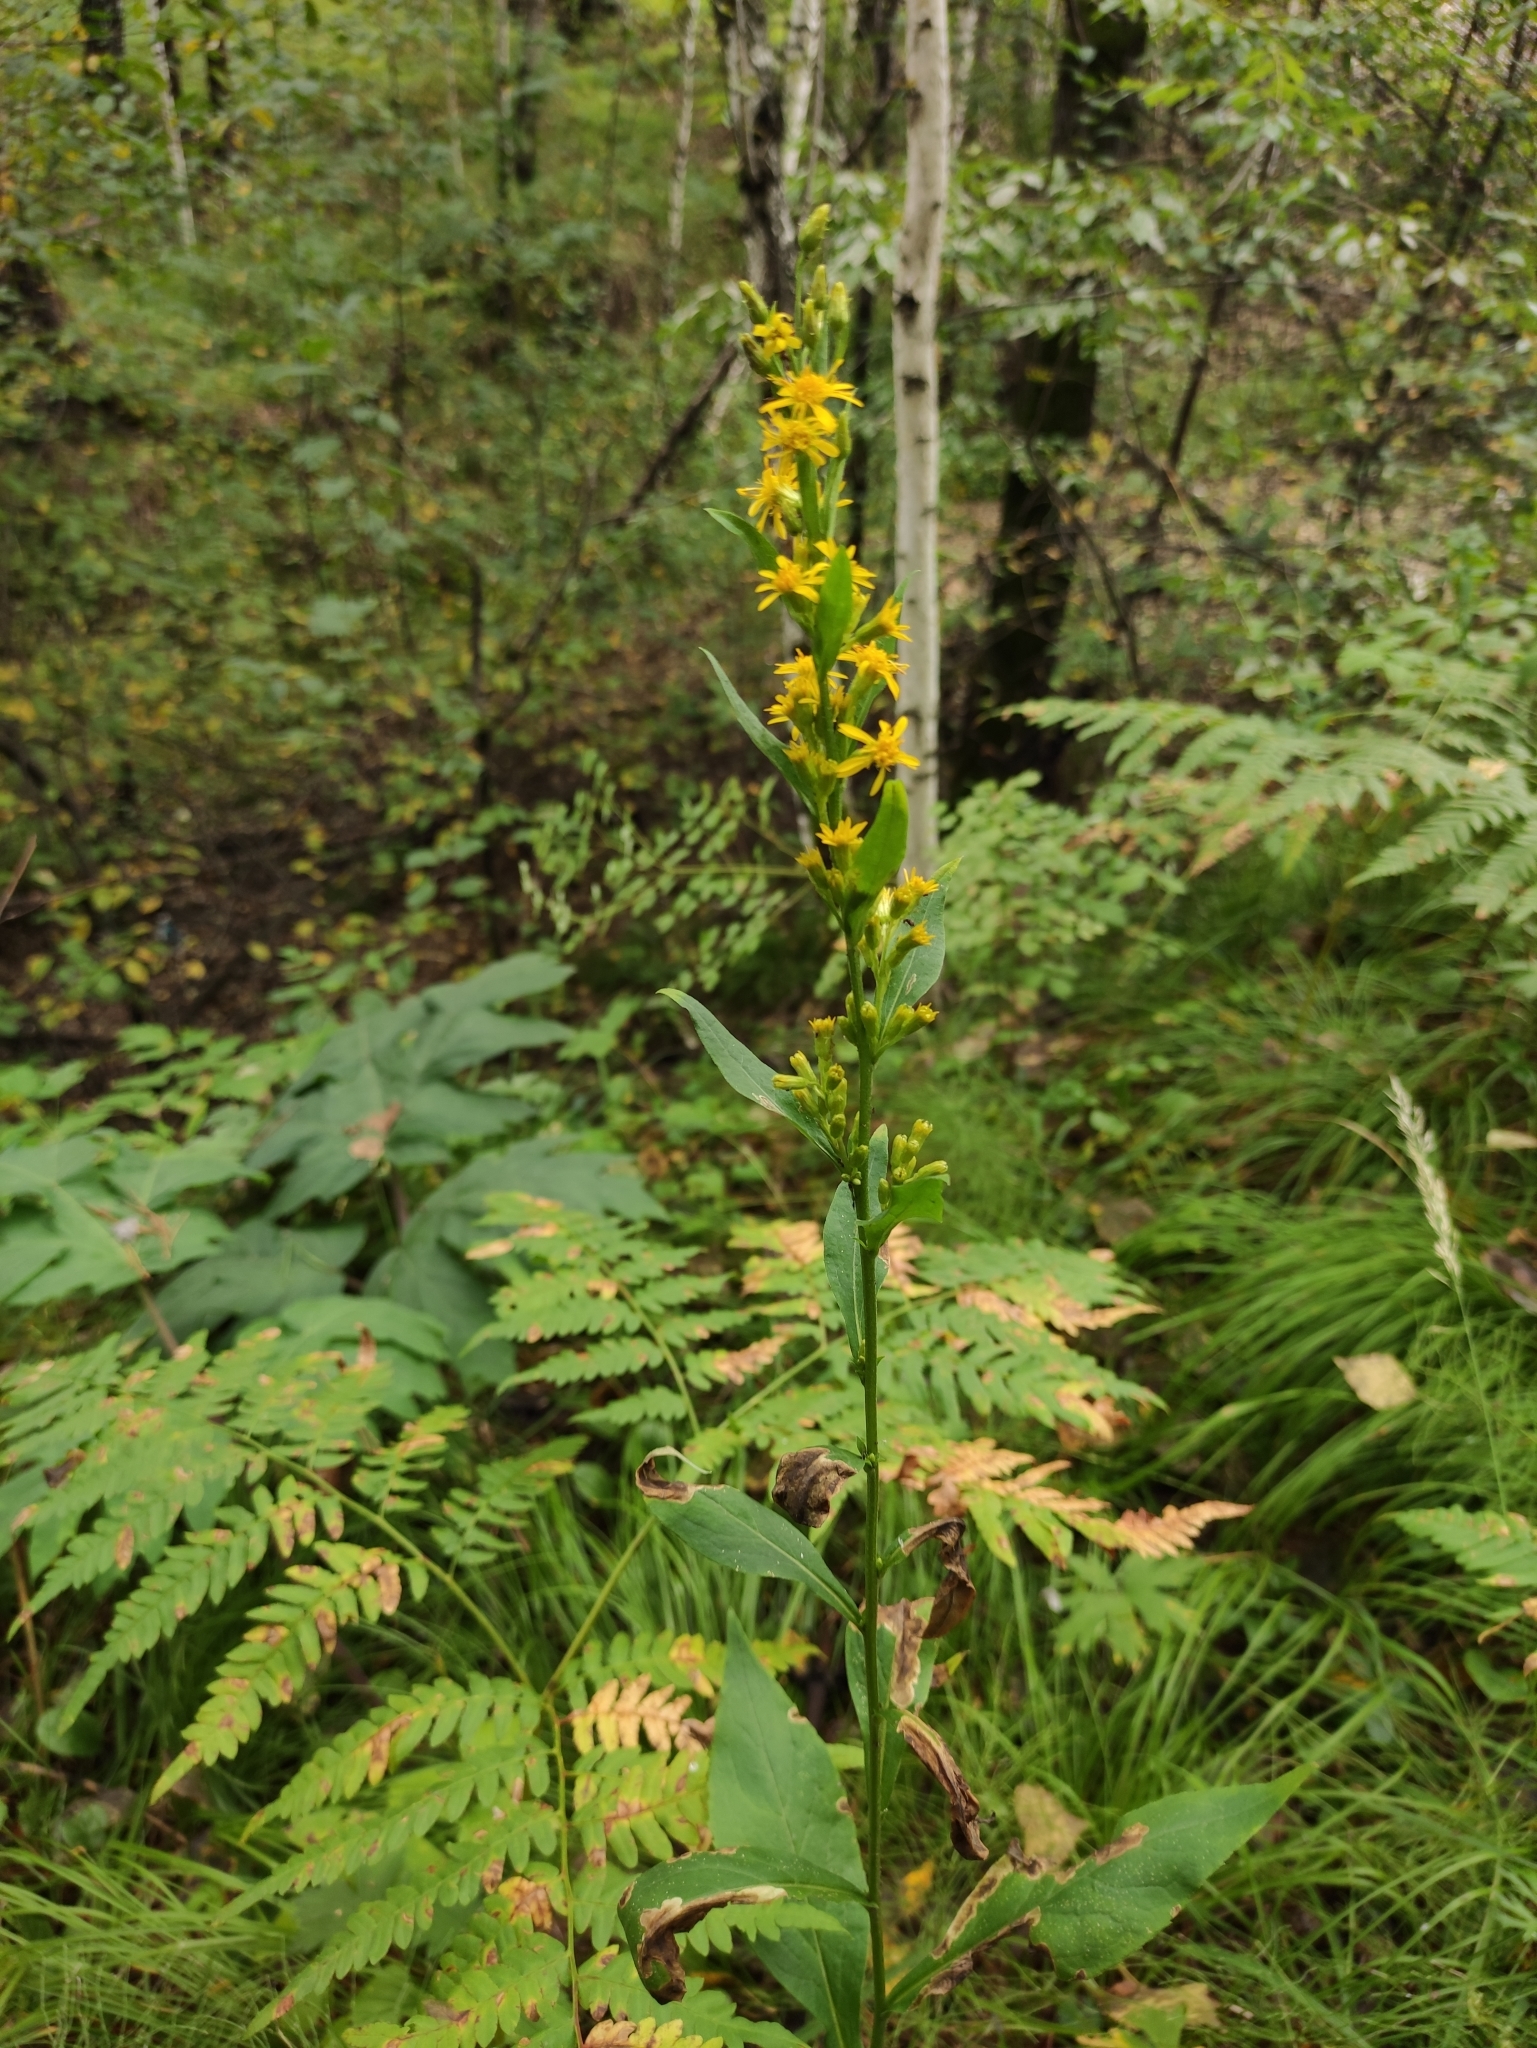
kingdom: Plantae
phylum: Tracheophyta
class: Magnoliopsida
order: Asterales
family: Asteraceae
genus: Solidago
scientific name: Solidago dahurica
